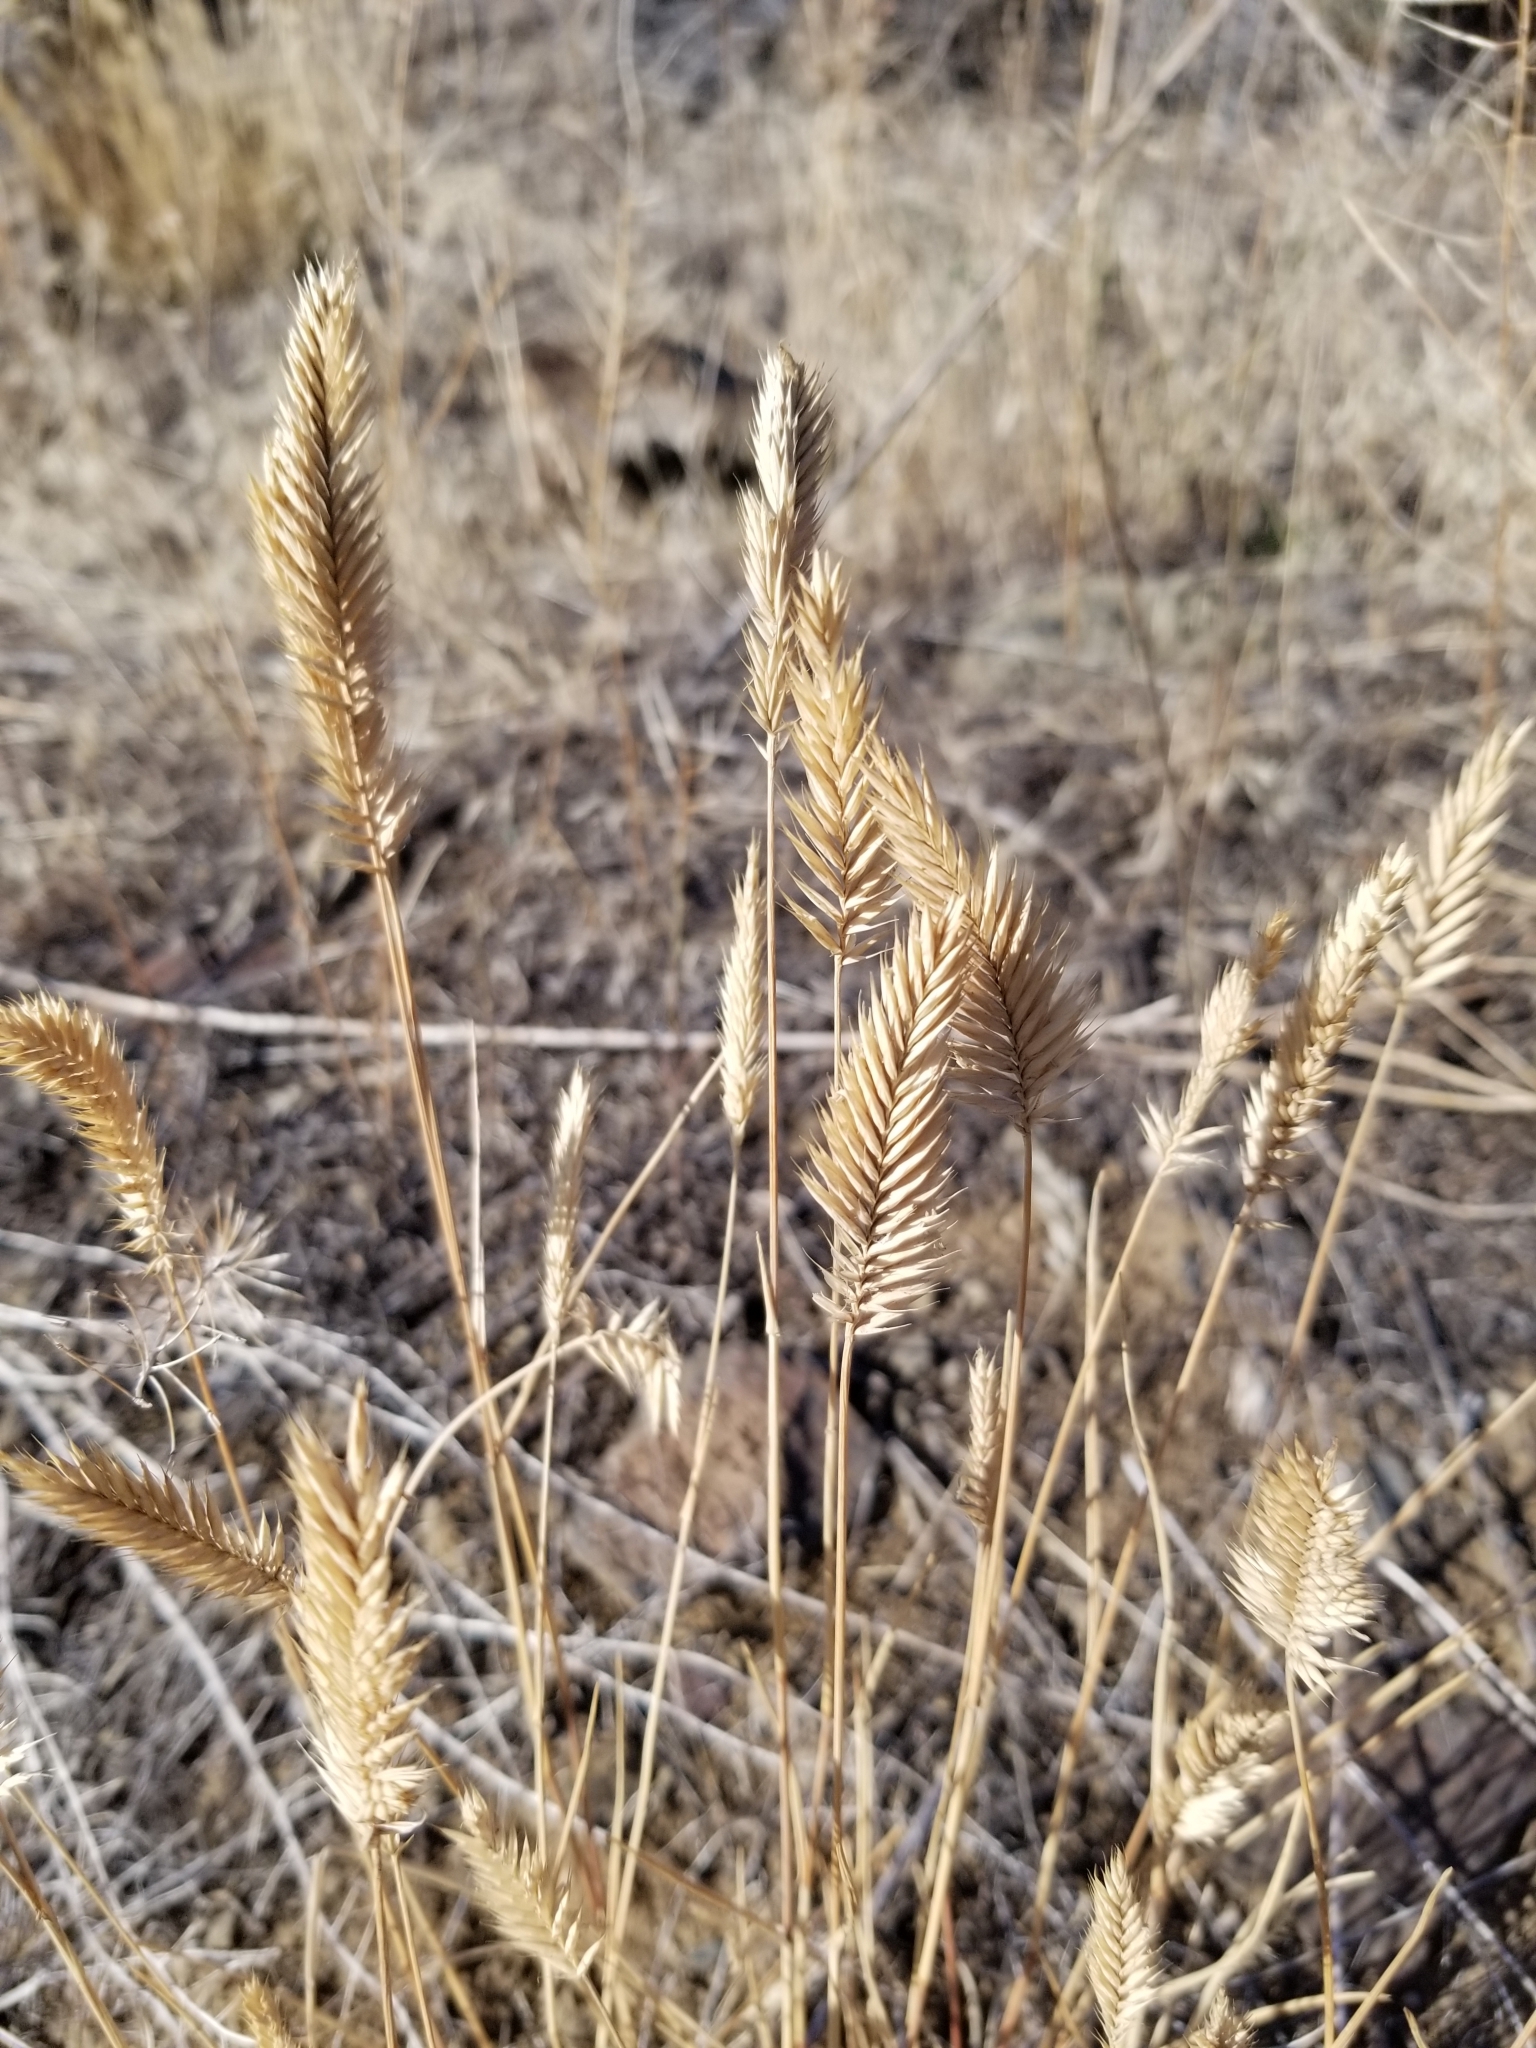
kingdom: Plantae
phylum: Tracheophyta
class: Liliopsida
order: Poales
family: Poaceae
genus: Agropyron
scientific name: Agropyron cristatum
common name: Crested wheatgrass
